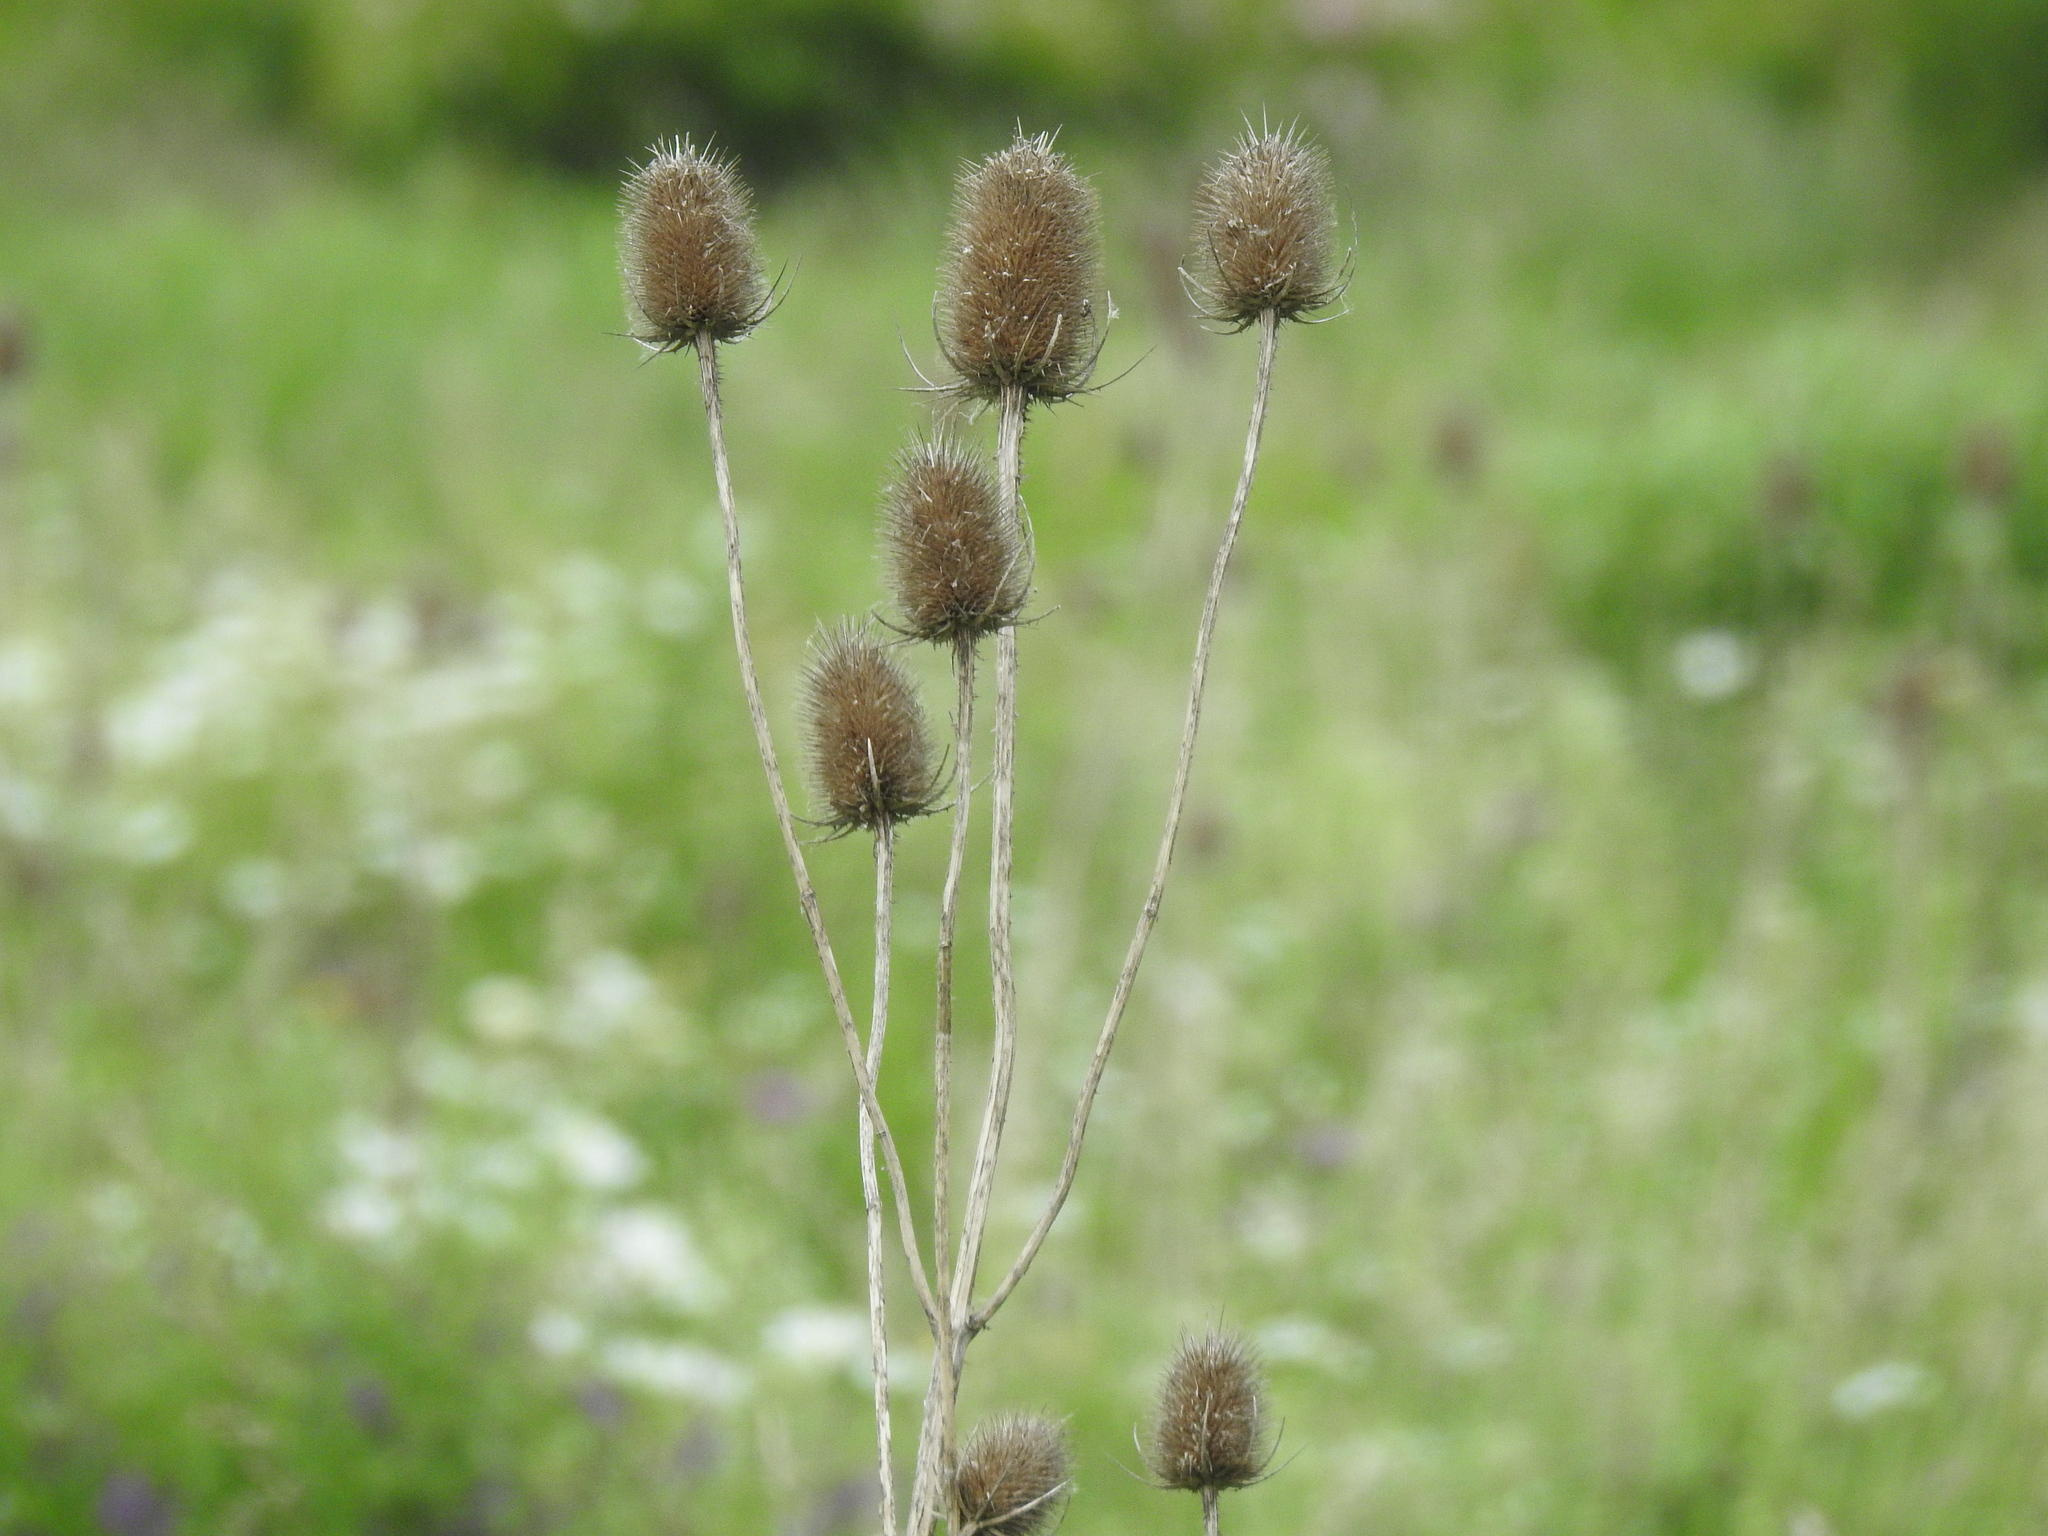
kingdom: Plantae
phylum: Tracheophyta
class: Magnoliopsida
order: Dipsacales
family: Caprifoliaceae
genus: Dipsacus
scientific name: Dipsacus fullonum
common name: Teasel
